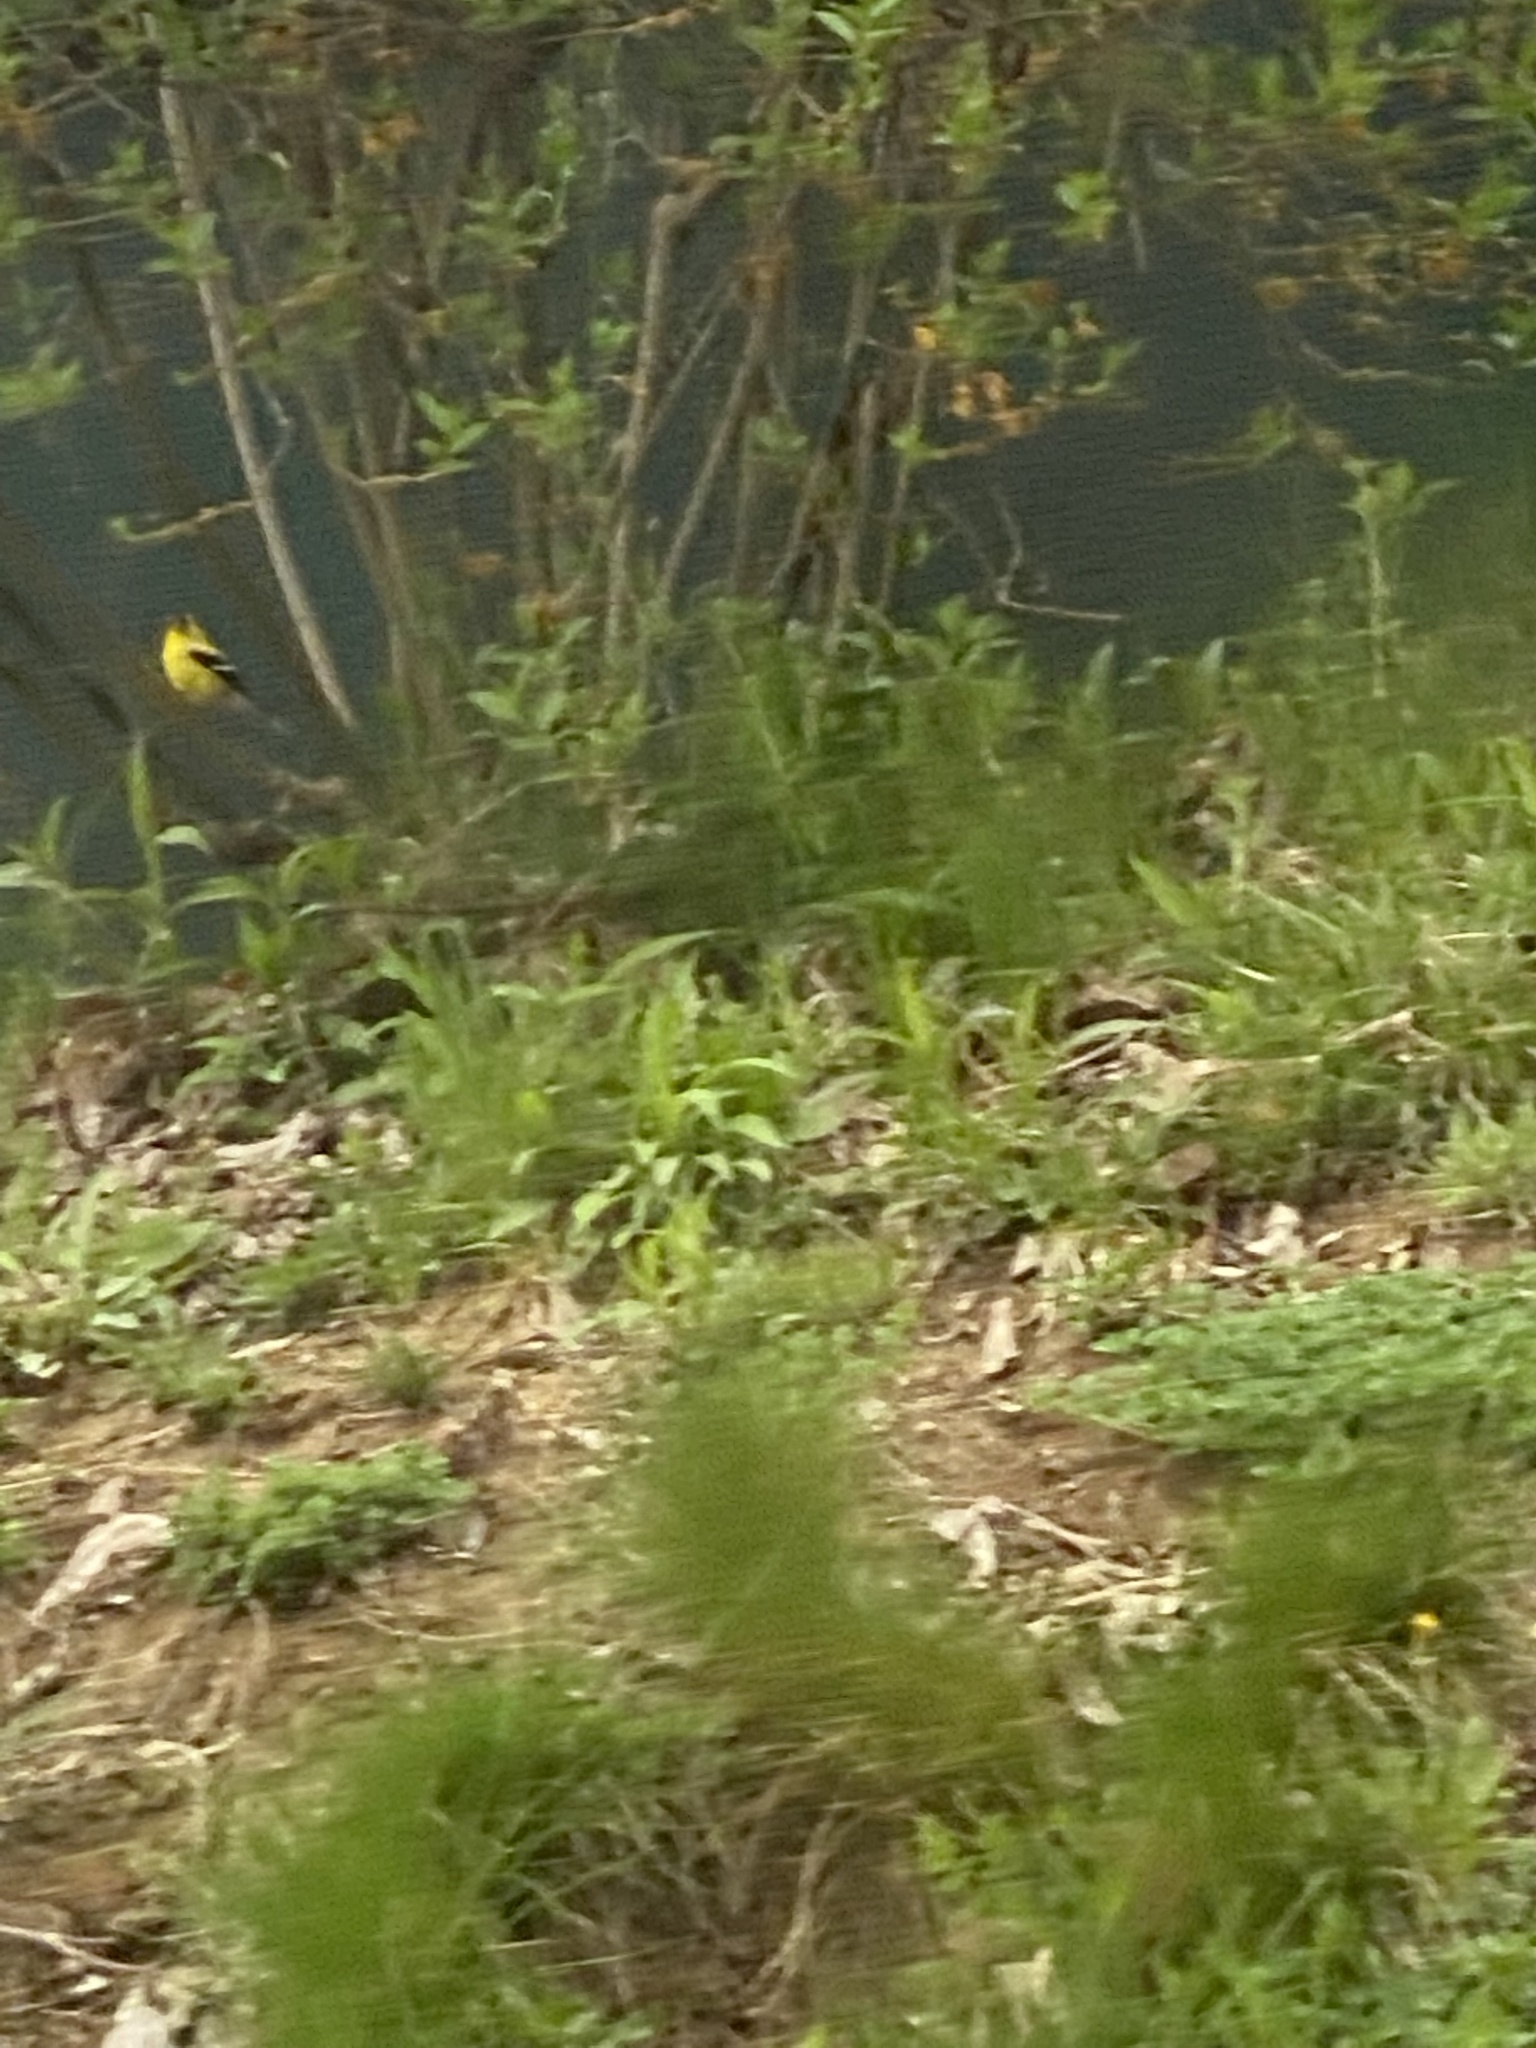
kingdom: Animalia
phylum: Chordata
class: Aves
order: Passeriformes
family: Fringillidae
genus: Spinus
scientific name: Spinus tristis
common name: American goldfinch
